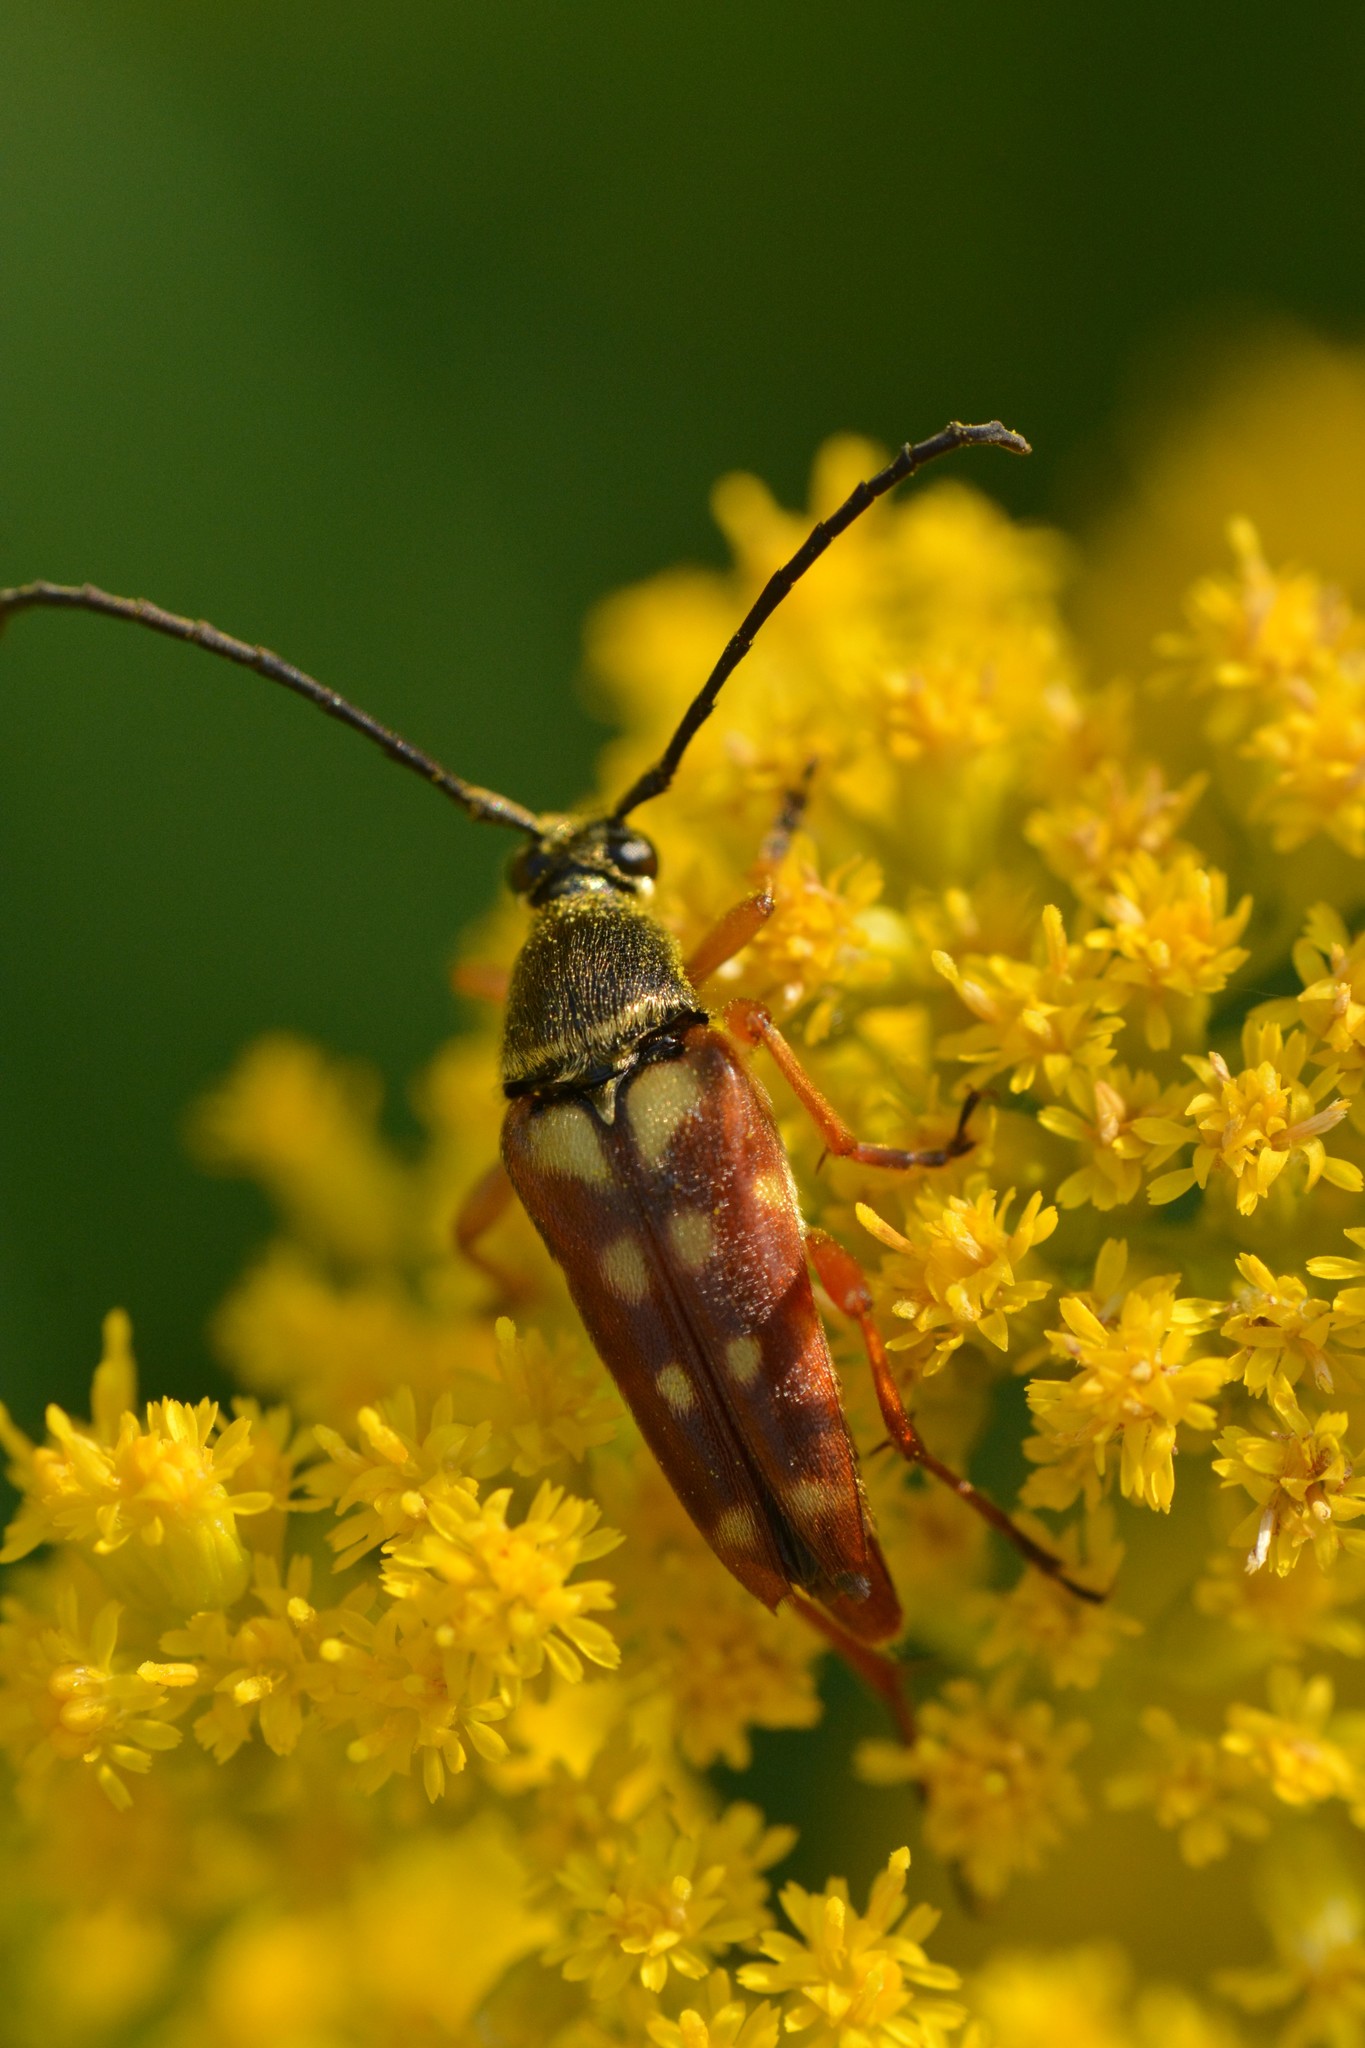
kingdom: Animalia
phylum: Arthropoda
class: Insecta
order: Coleoptera
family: Cerambycidae
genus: Typocerus
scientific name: Typocerus velutinus
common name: Banded longhorn beetle
